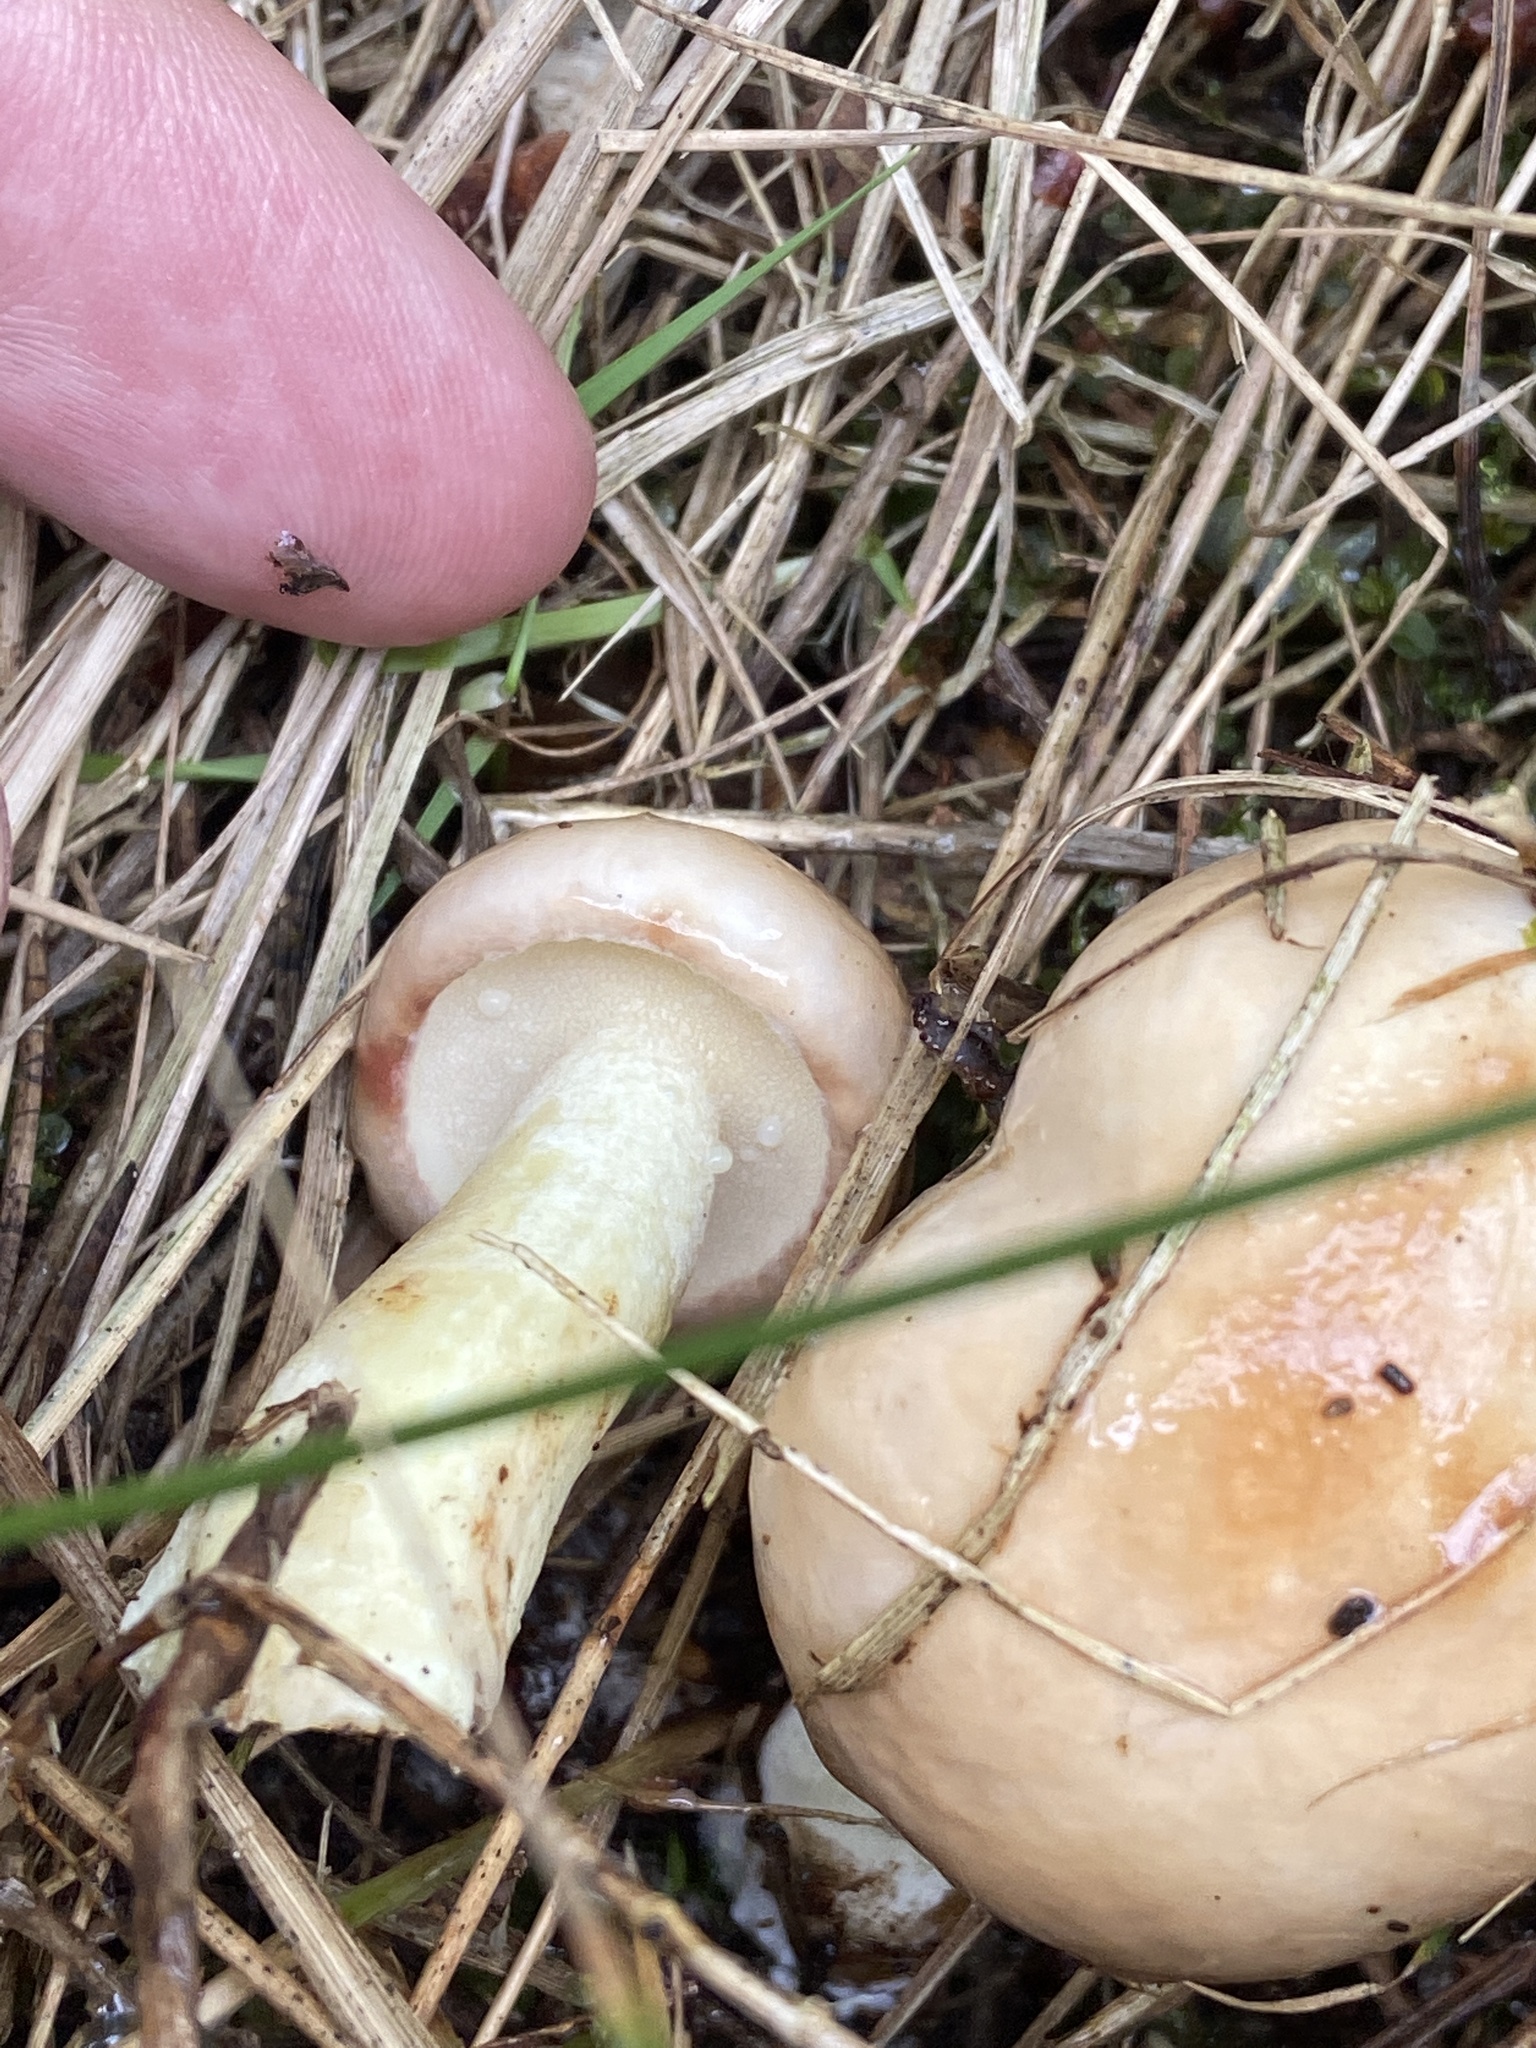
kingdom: Fungi
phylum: Basidiomycota
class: Agaricomycetes
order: Boletales
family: Suillaceae
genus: Suillus
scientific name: Suillus granulatus
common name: Weeping bolete
